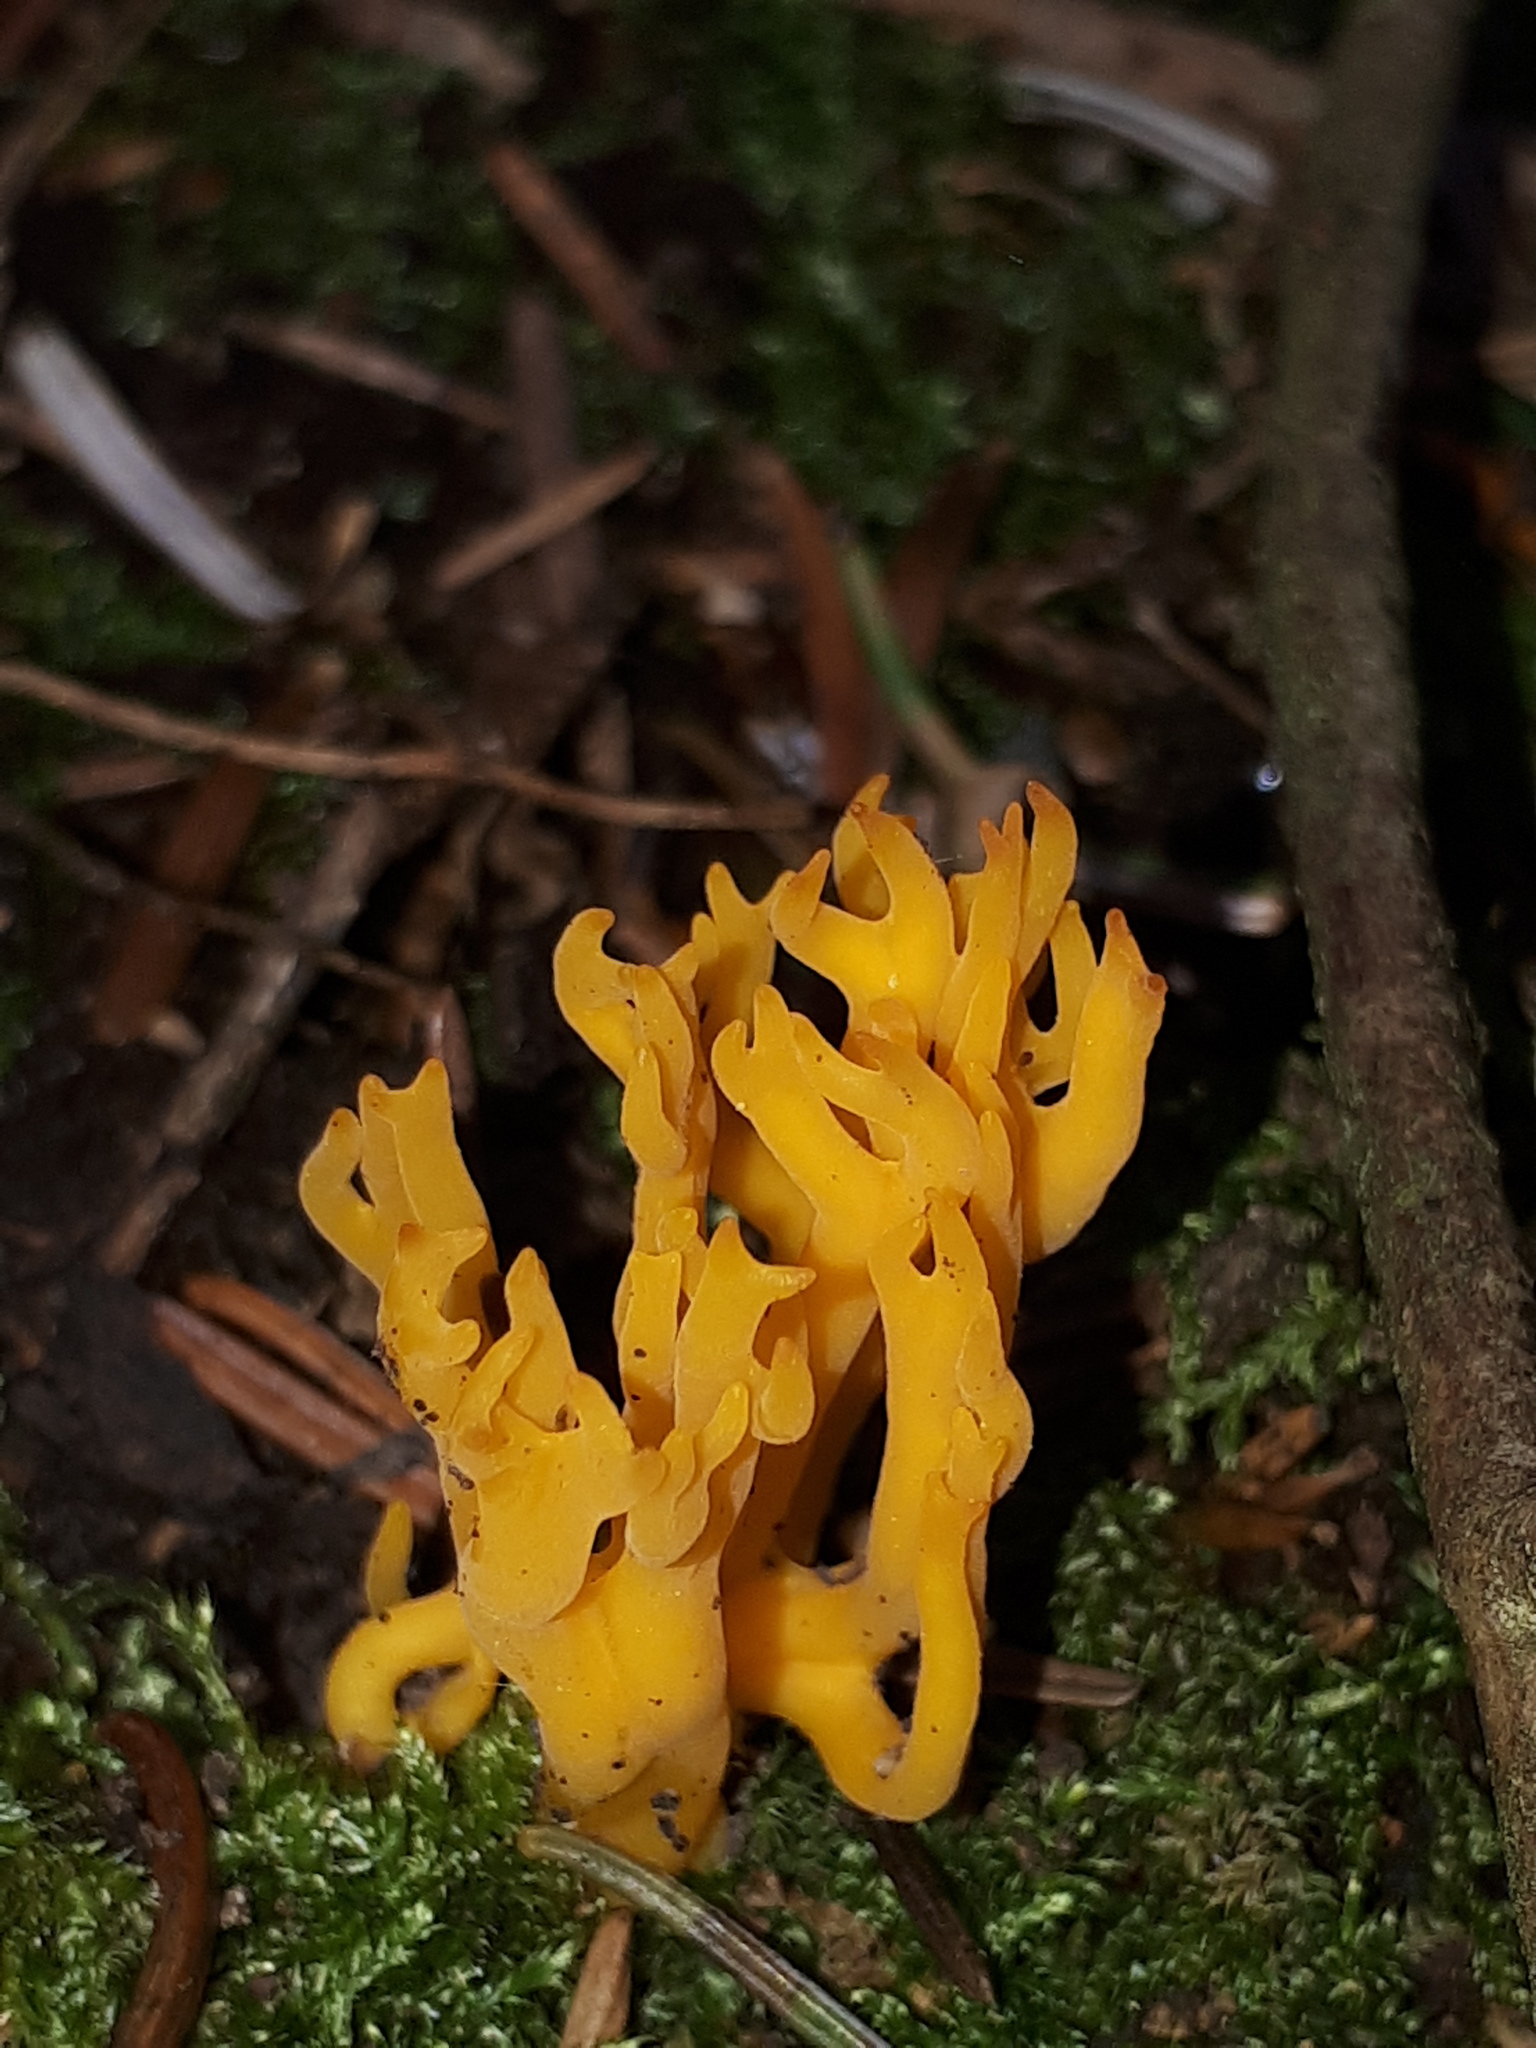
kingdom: Fungi
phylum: Basidiomycota
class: Dacrymycetes
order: Dacrymycetales
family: Dacrymycetaceae
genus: Calocera
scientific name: Calocera viscosa
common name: Yellow stagshorn
